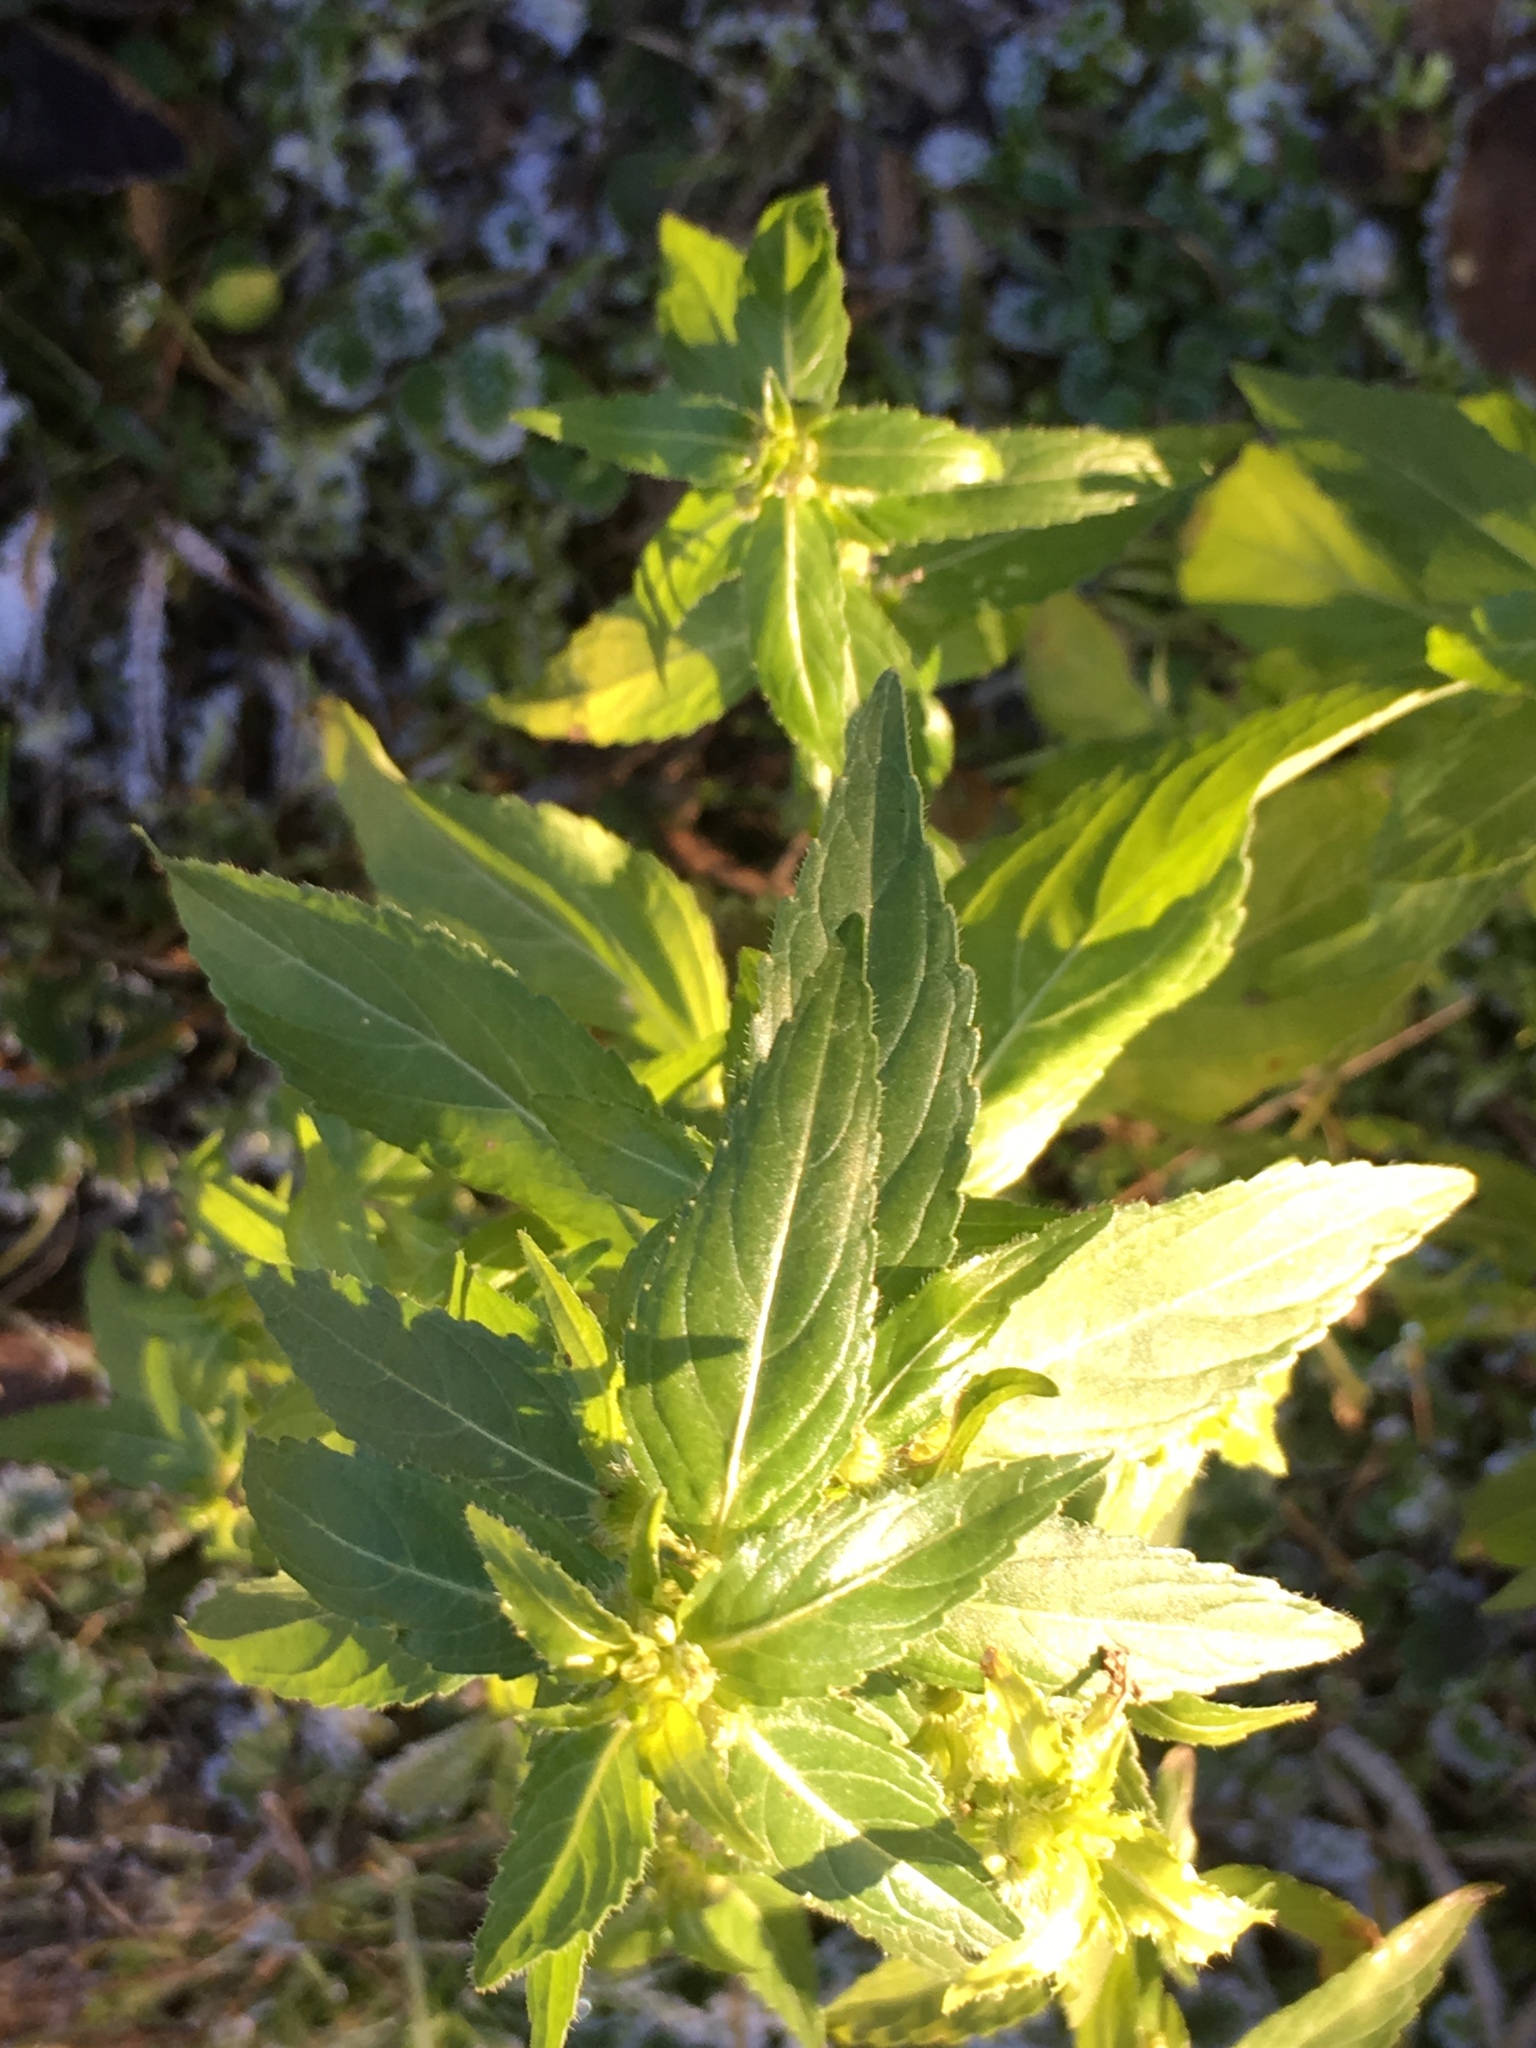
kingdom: Plantae
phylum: Tracheophyta
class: Magnoliopsida
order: Malpighiales
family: Euphorbiaceae
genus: Mercurialis
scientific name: Mercurialis annua
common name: Annual mercury
